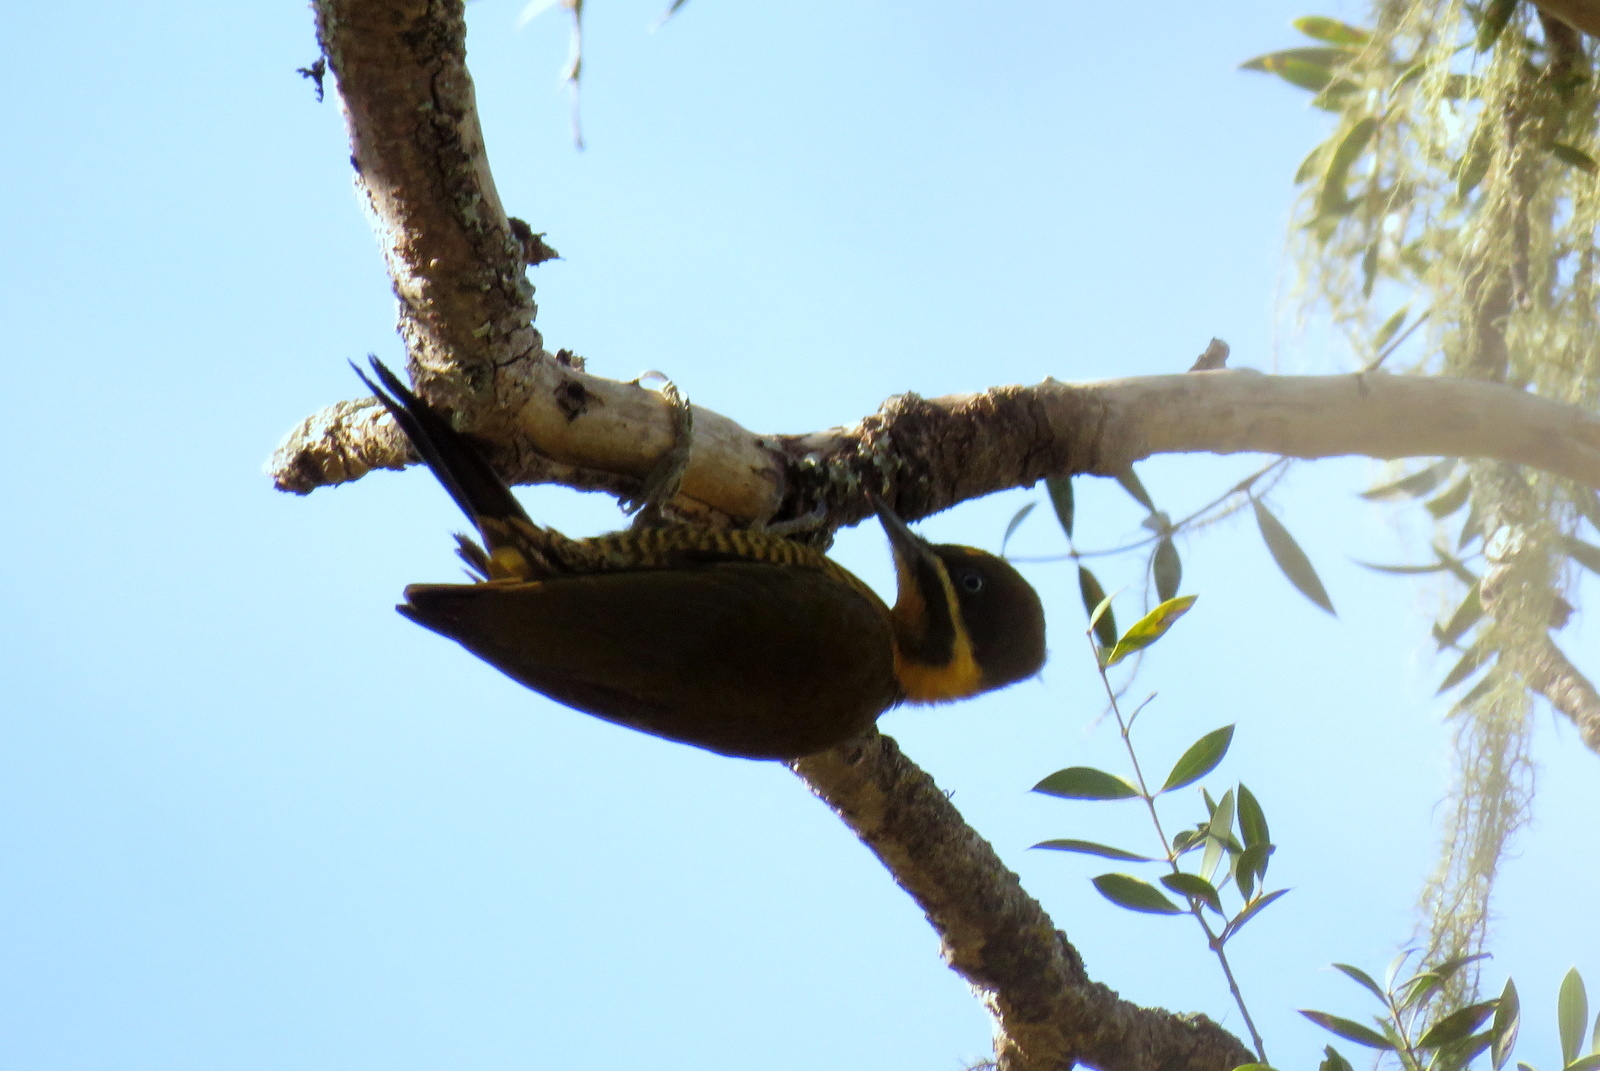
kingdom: Animalia
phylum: Chordata
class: Aves
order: Piciformes
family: Picidae
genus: Piculus
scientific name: Piculus chrysochloros
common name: Golden-green woodpecker
